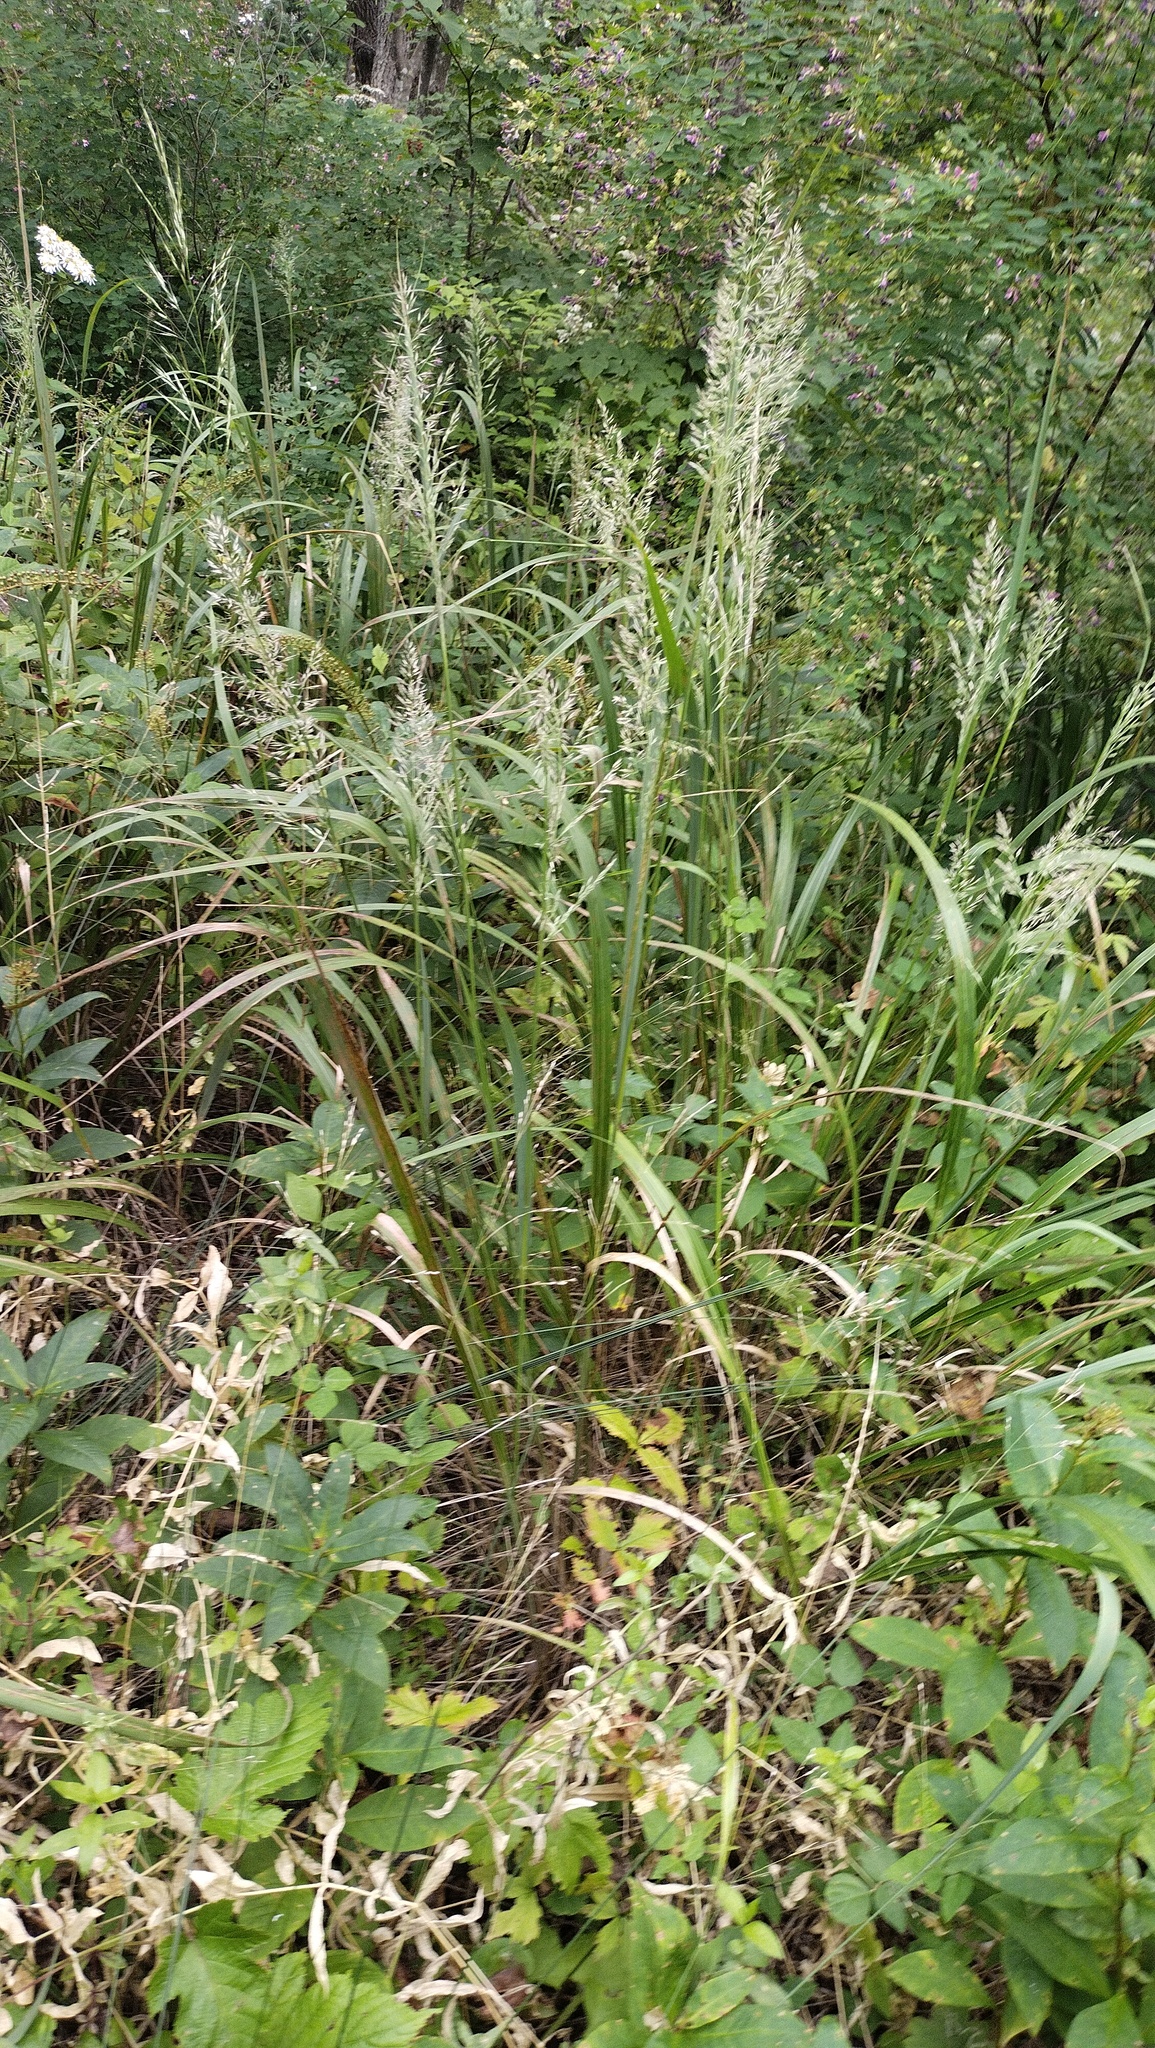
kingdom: Plantae
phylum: Tracheophyta
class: Liliopsida
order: Poales
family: Poaceae
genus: Calamagrostis
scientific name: Calamagrostis arundinacea
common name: Metskastik
